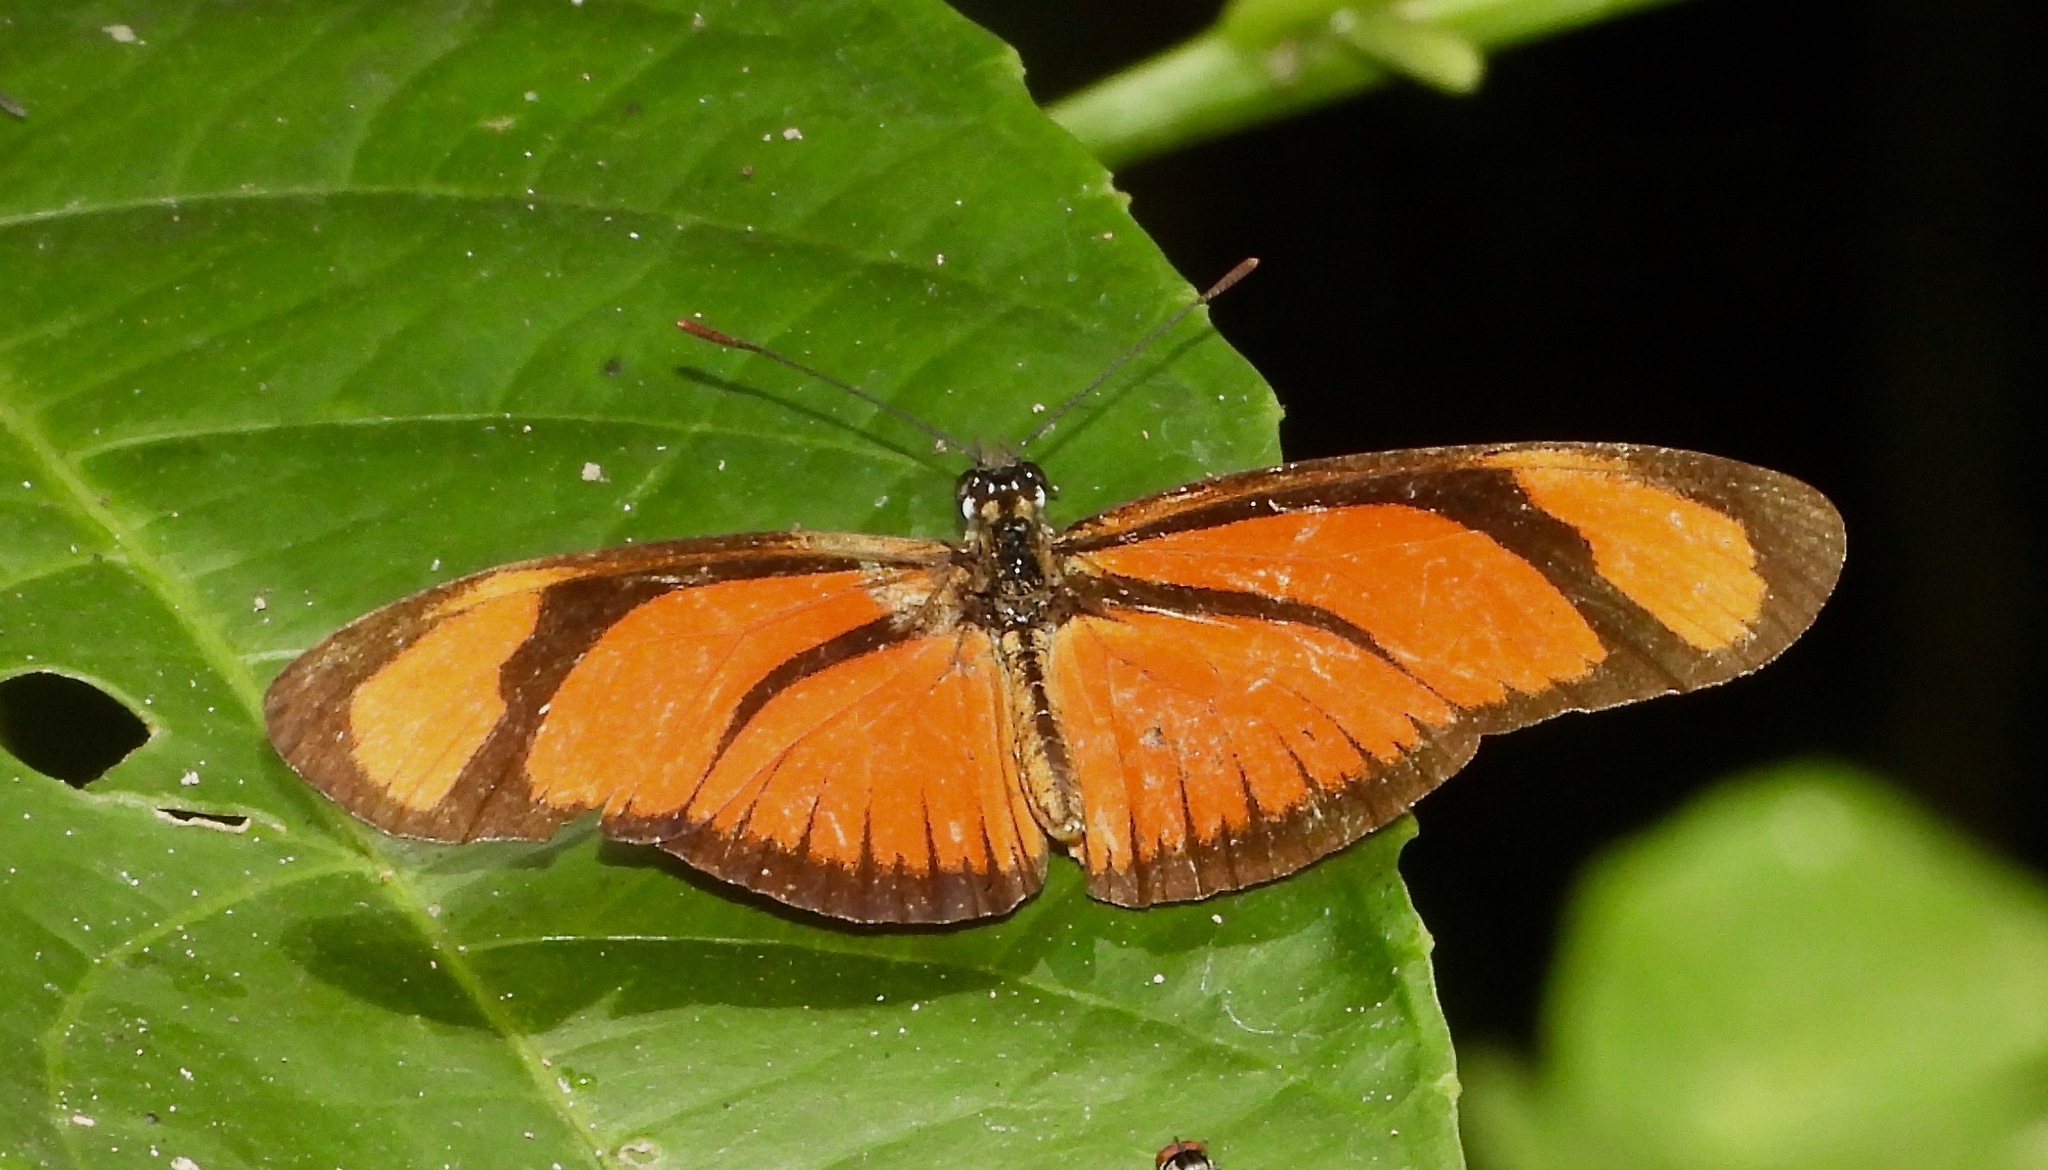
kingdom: Animalia
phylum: Arthropoda
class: Insecta
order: Lepidoptera
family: Nymphalidae
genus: Heliconius
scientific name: Heliconius aliphera
